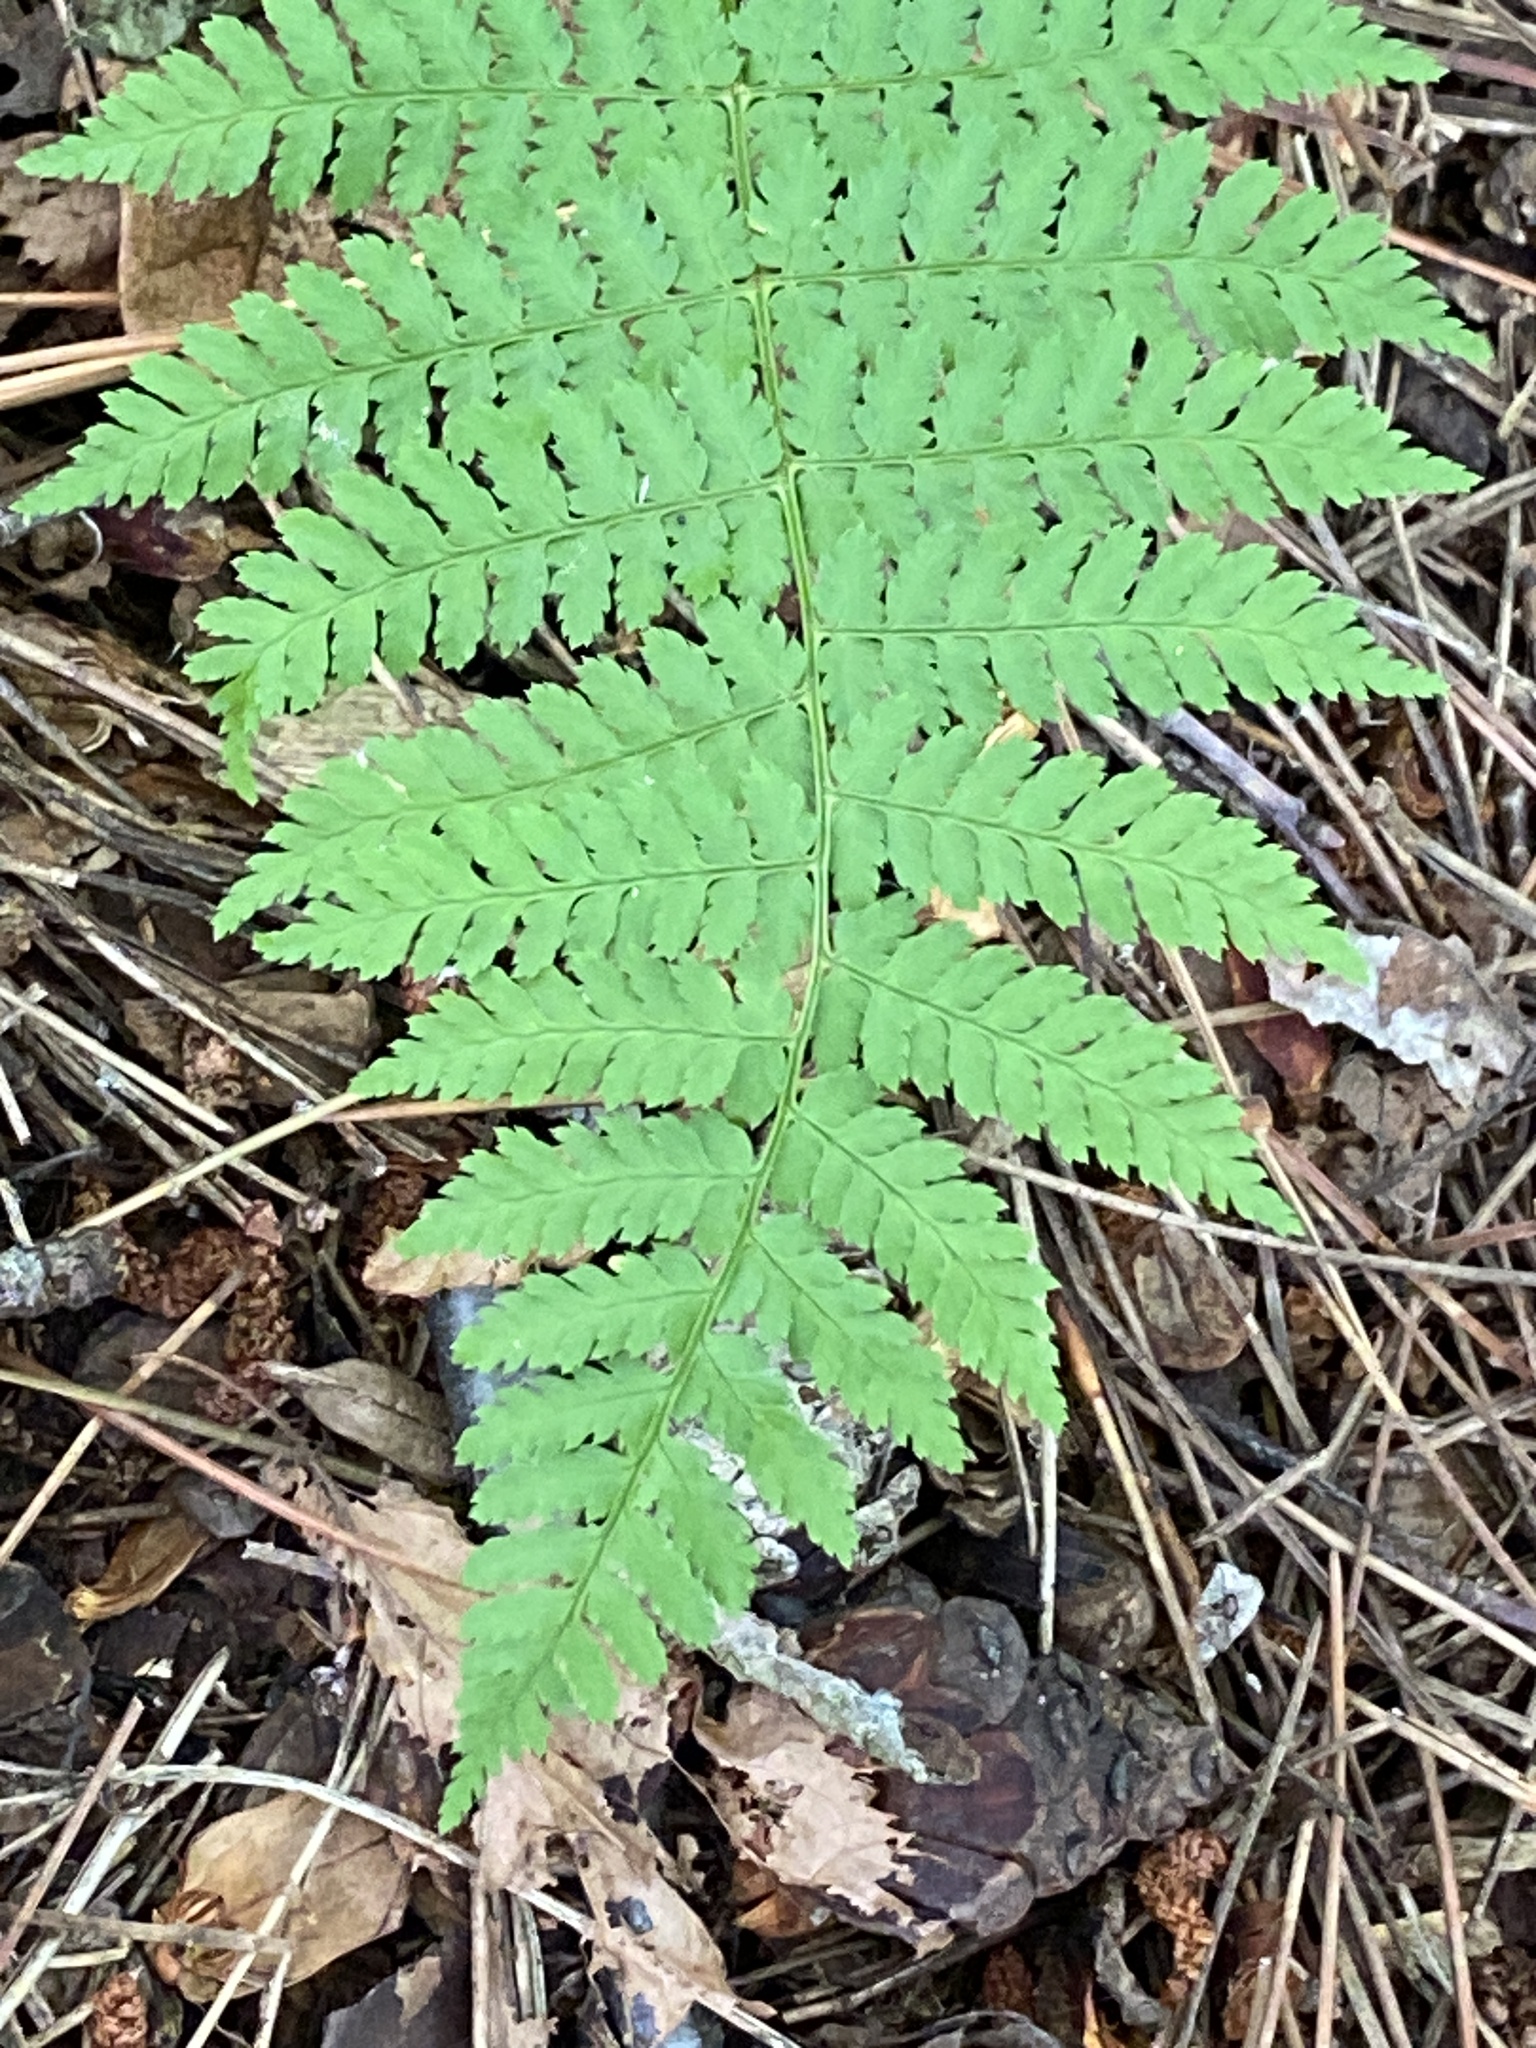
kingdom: Plantae
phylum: Tracheophyta
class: Polypodiopsida
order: Polypodiales
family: Dryopteridaceae
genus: Dryopteris
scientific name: Dryopteris intermedia
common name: Evergreen wood fern
